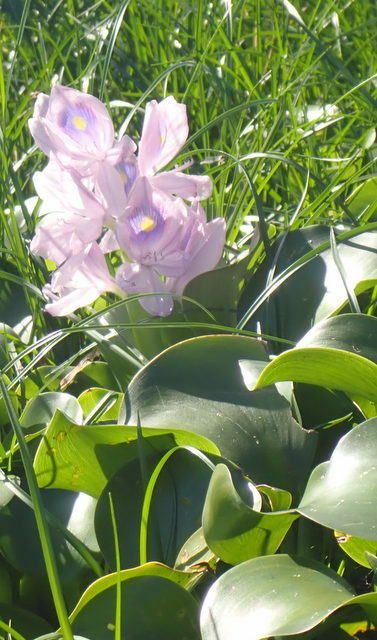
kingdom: Plantae
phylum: Tracheophyta
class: Liliopsida
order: Commelinales
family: Pontederiaceae
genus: Pontederia
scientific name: Pontederia crassipes
